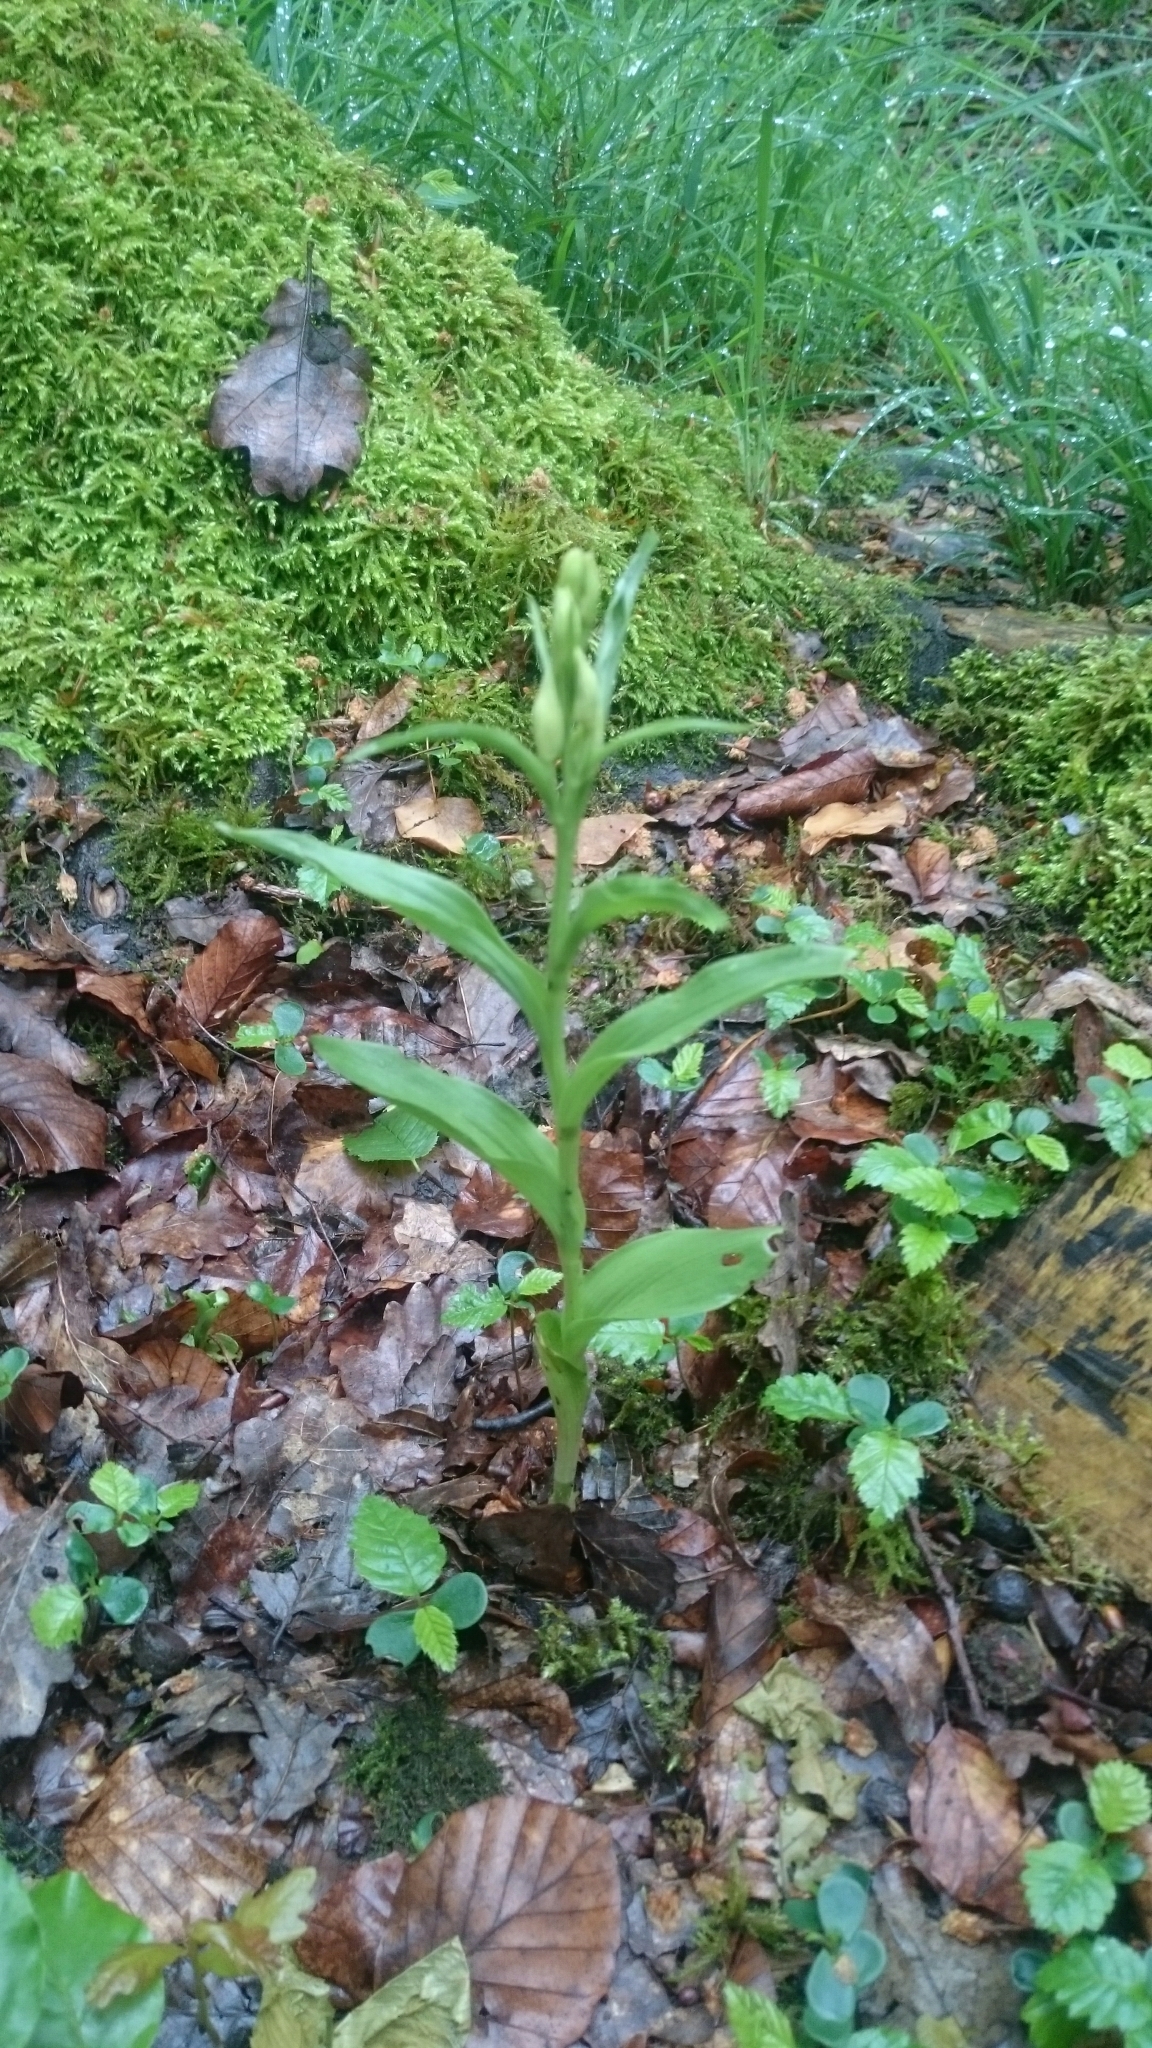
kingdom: Plantae
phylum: Tracheophyta
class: Liliopsida
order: Asparagales
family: Orchidaceae
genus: Cephalanthera
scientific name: Cephalanthera damasonium
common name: White helleborine
